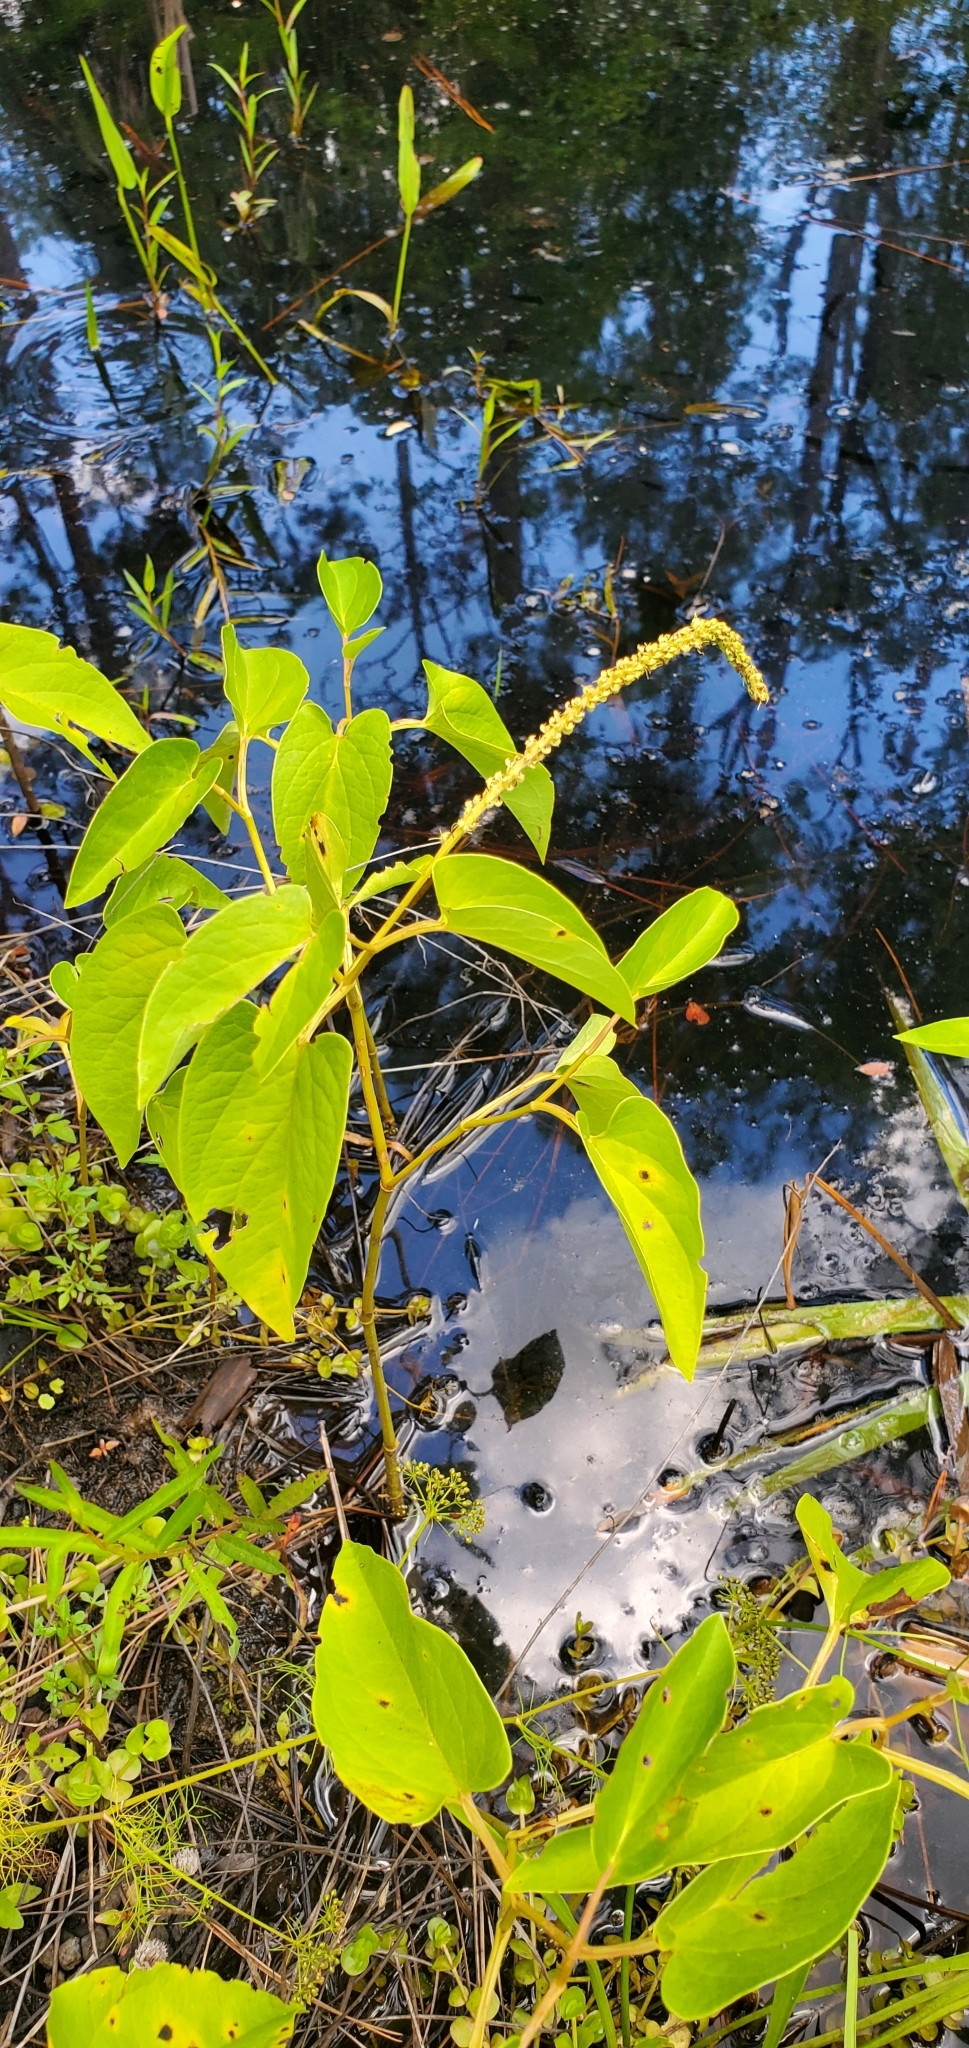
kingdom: Plantae
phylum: Tracheophyta
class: Magnoliopsida
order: Piperales
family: Saururaceae
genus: Saururus
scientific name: Saururus cernuus
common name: Lizard's-tail
